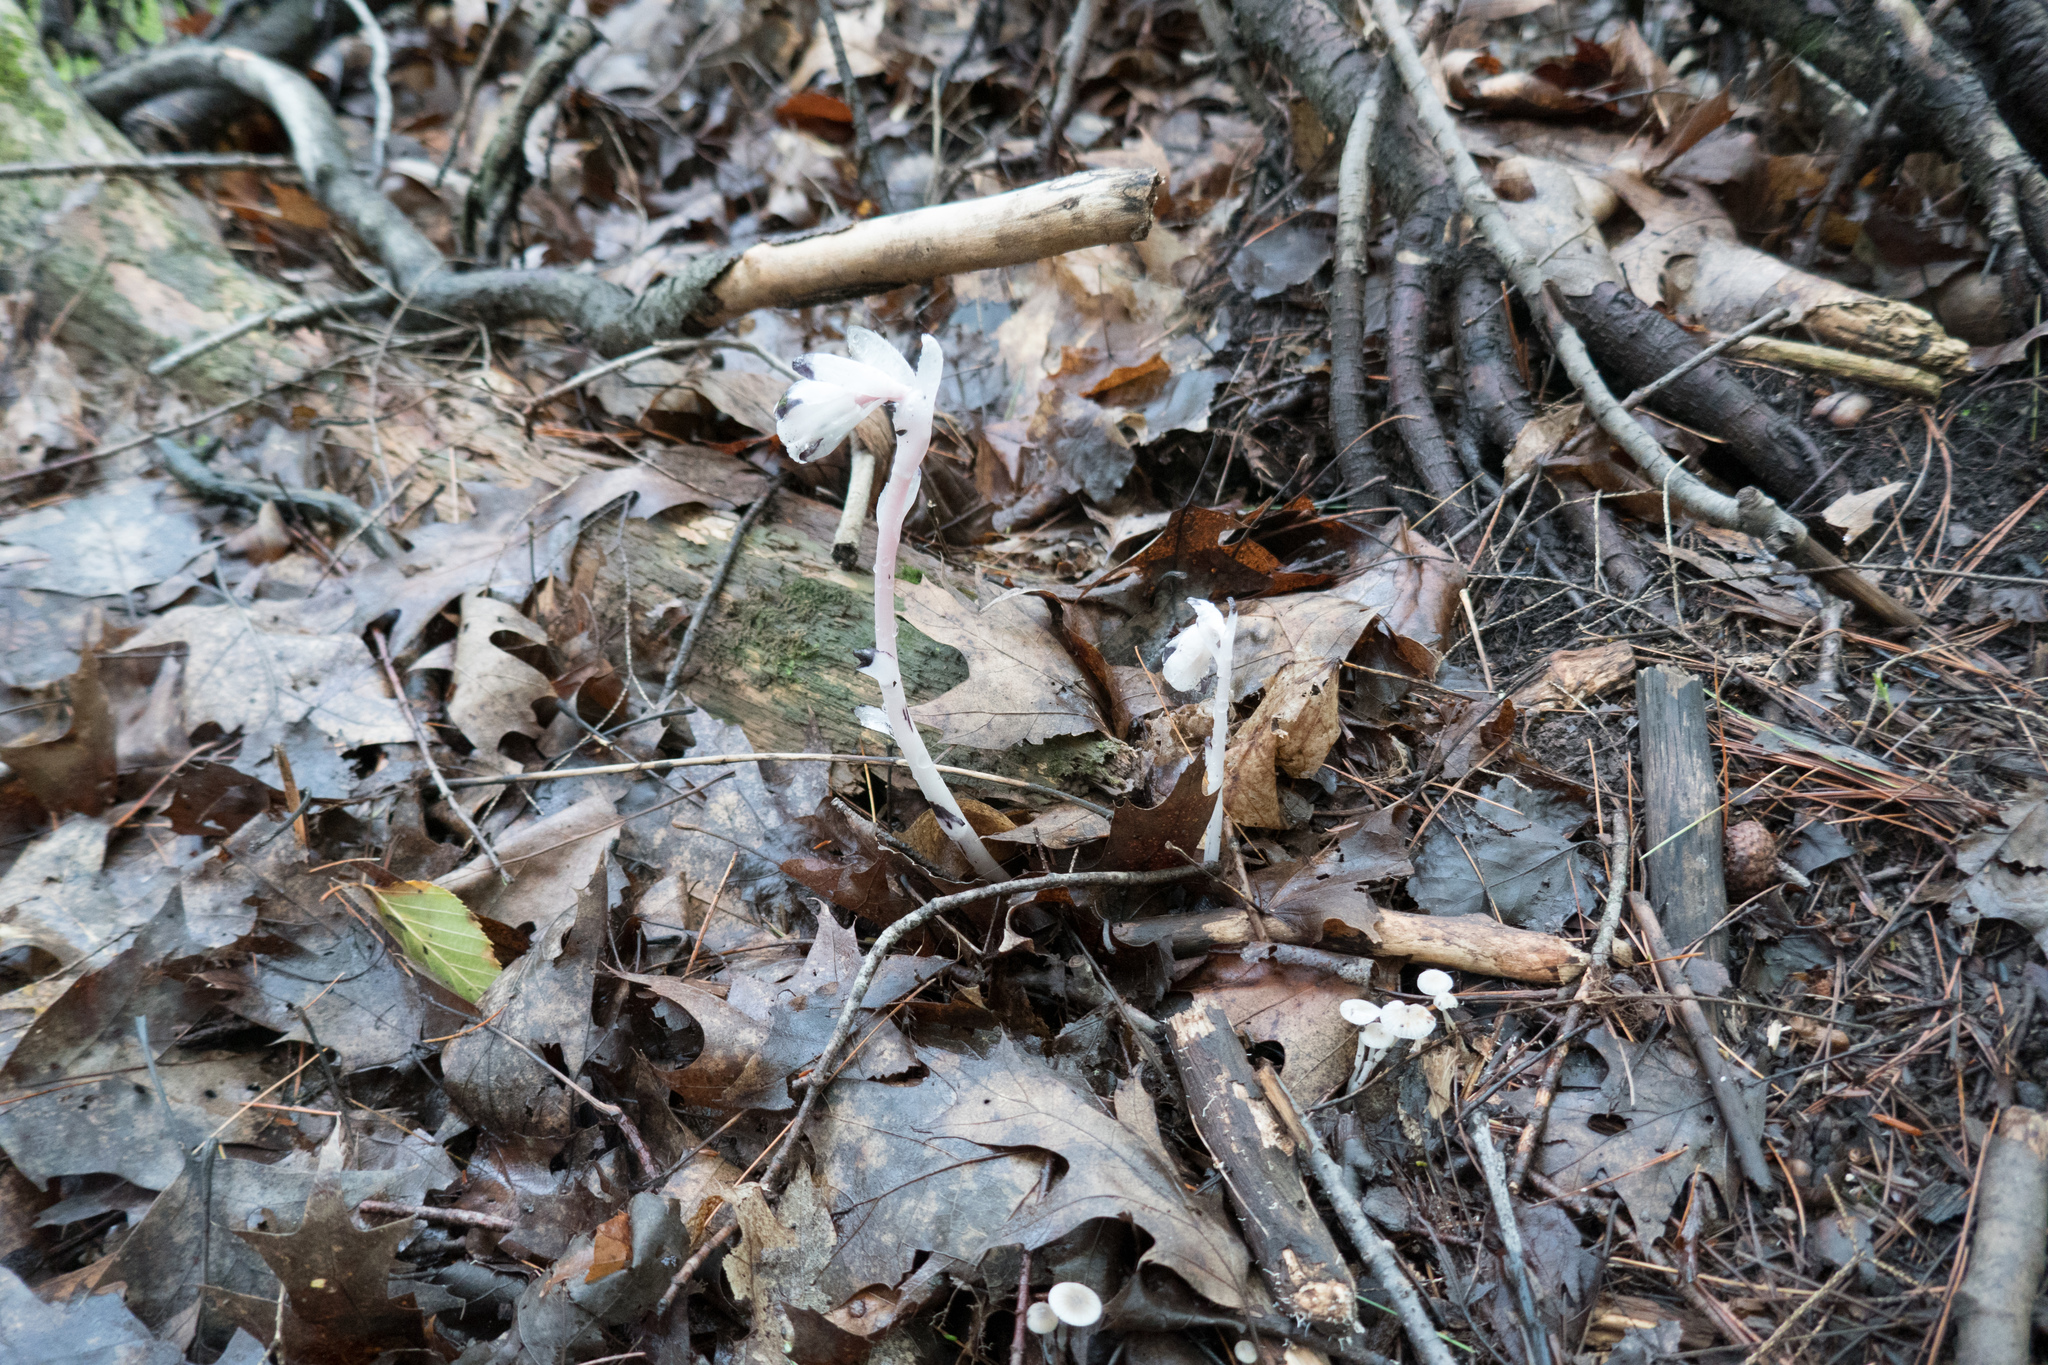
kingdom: Plantae
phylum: Tracheophyta
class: Magnoliopsida
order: Ericales
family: Ericaceae
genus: Monotropa
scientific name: Monotropa uniflora
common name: Convulsion root
